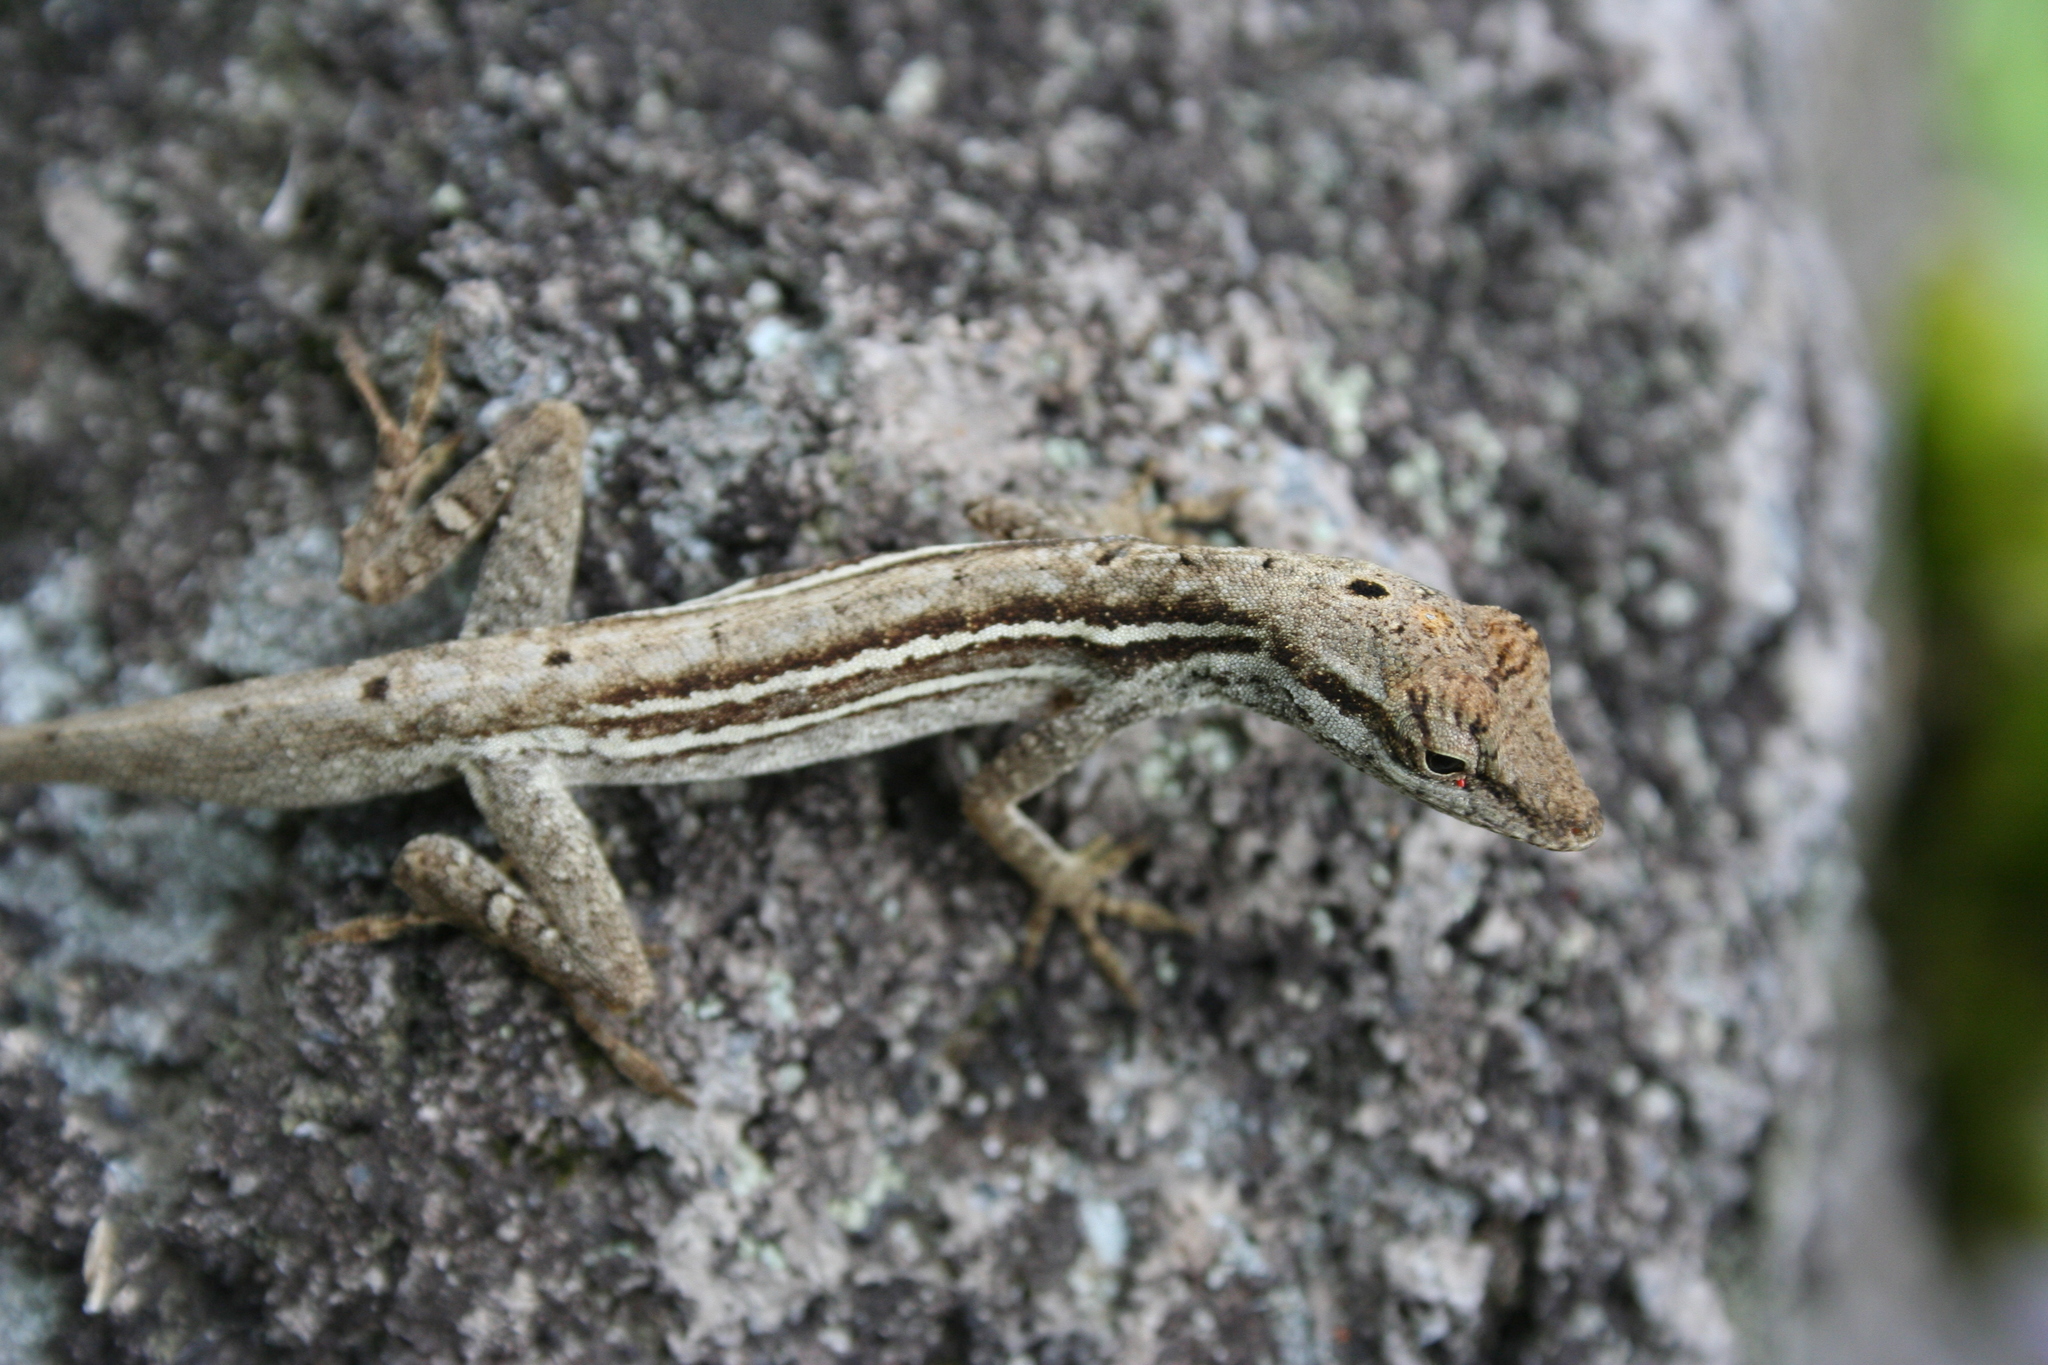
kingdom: Animalia
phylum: Chordata
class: Squamata
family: Dactyloidae
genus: Anolis
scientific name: Anolis wellbornae
